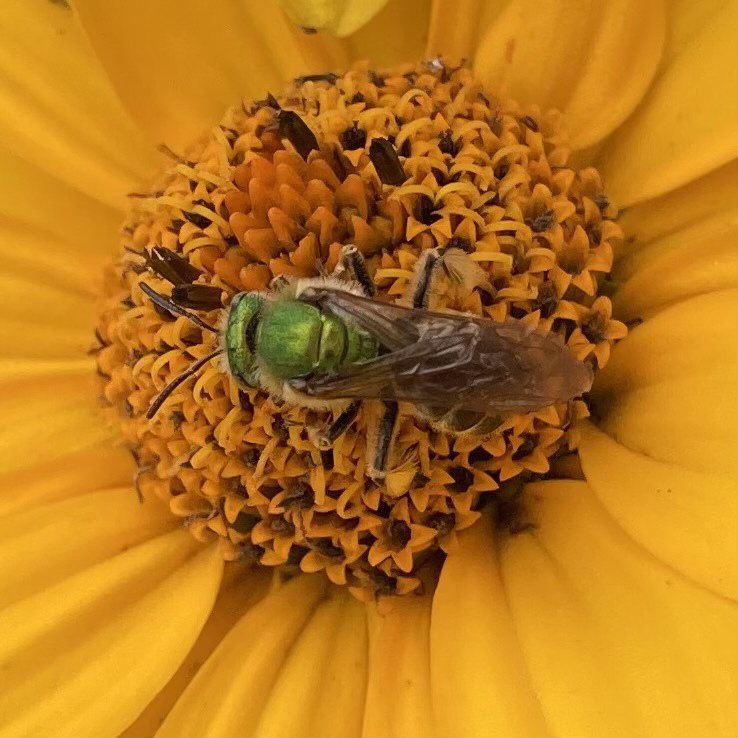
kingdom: Animalia
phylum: Arthropoda
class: Insecta
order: Hymenoptera
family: Halictidae
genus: Agapostemon
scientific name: Agapostemon virescens
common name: Bicolored striped sweat bee
